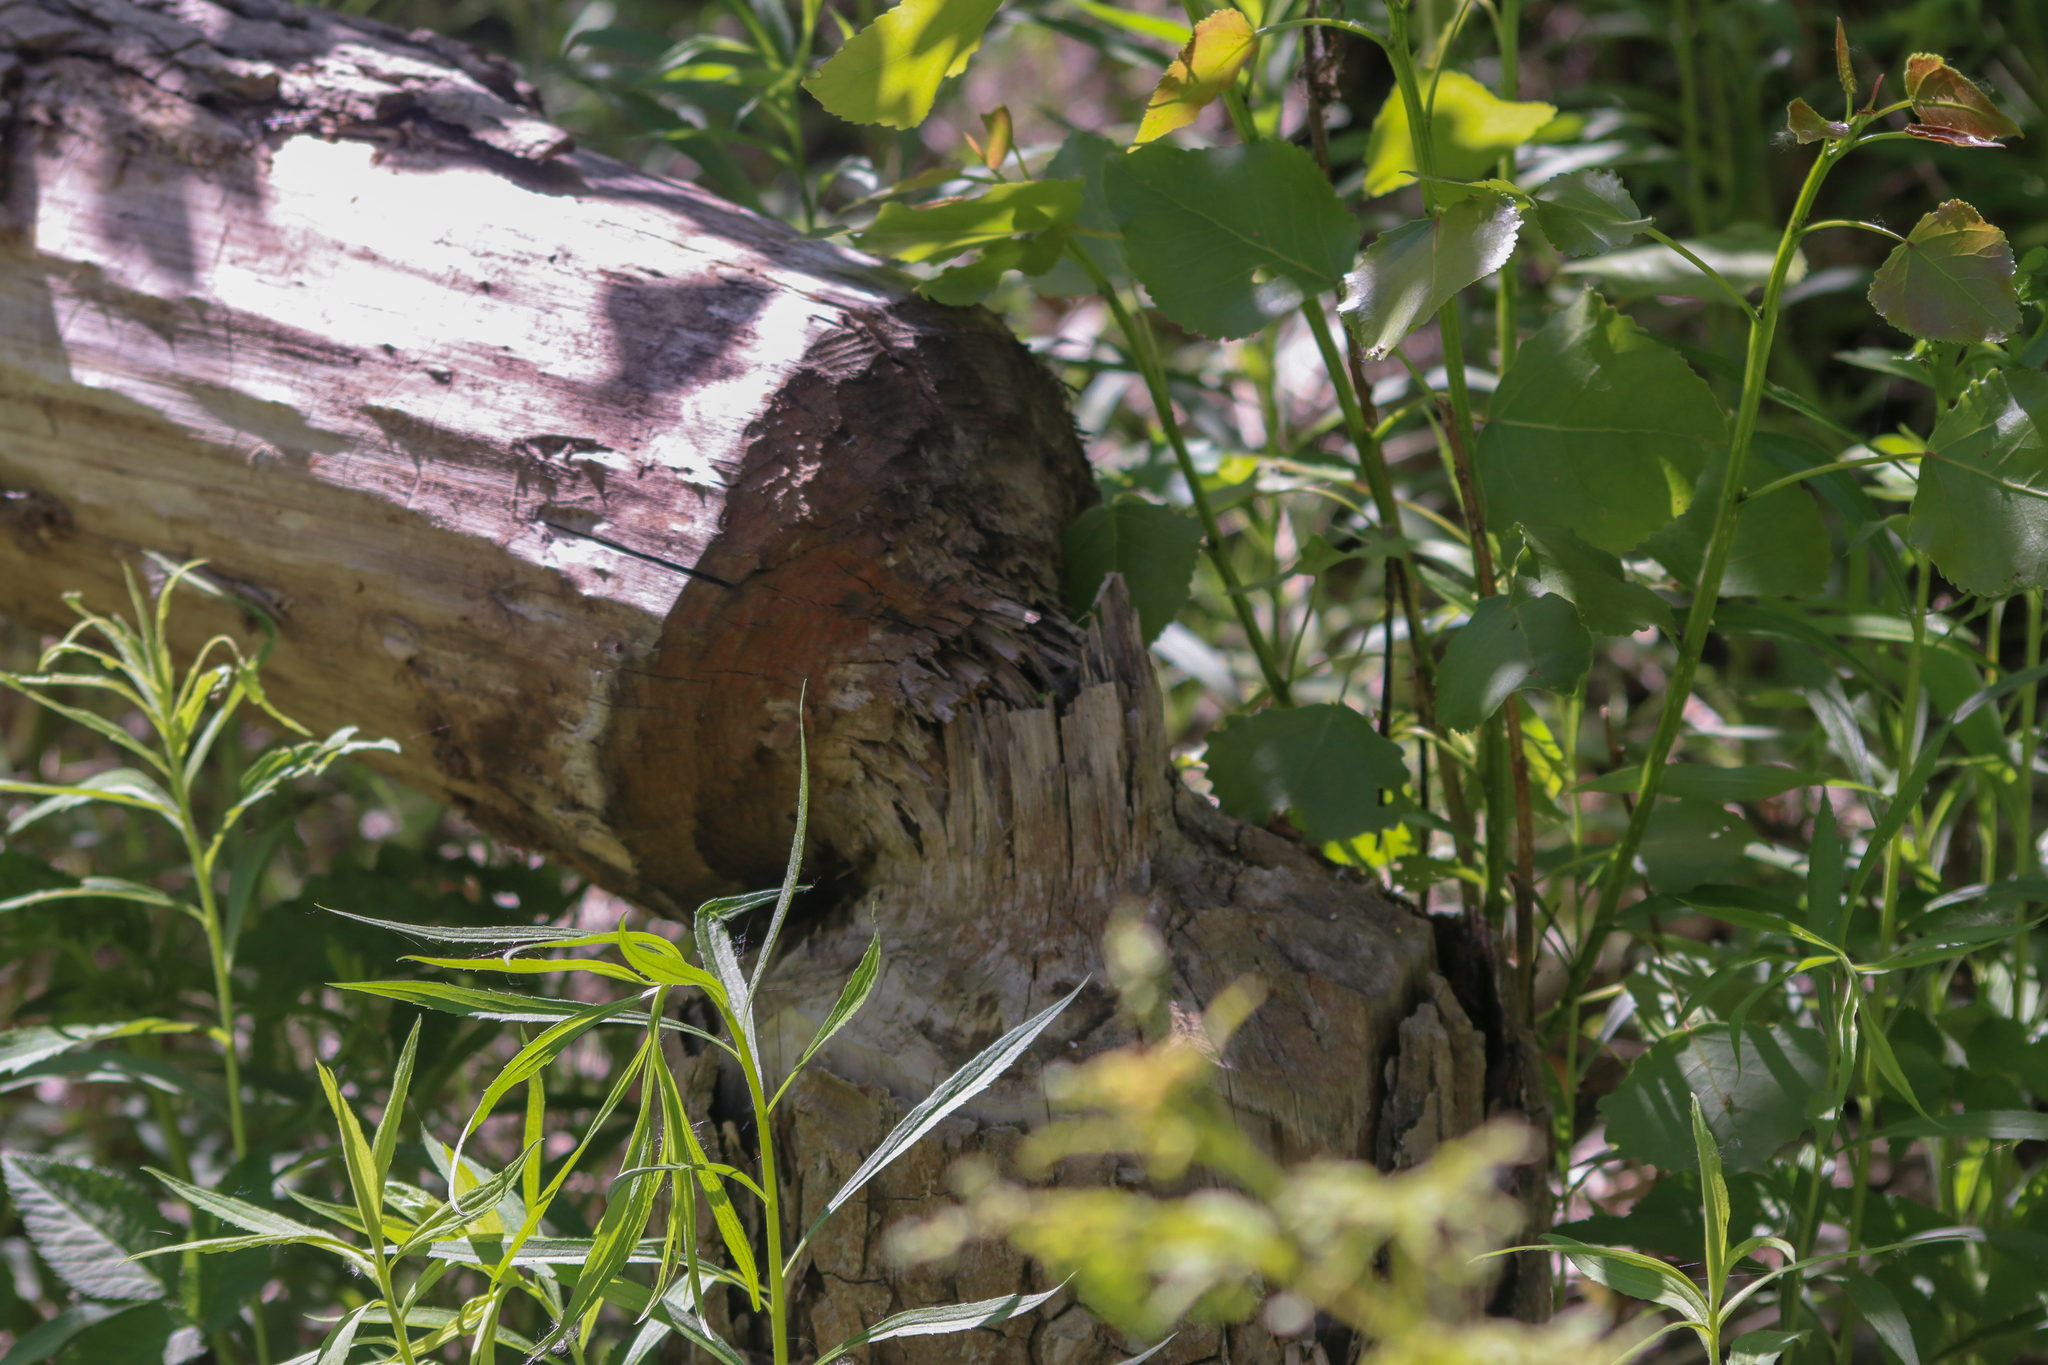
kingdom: Animalia
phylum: Chordata
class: Mammalia
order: Rodentia
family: Castoridae
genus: Castor
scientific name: Castor canadensis
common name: American beaver
